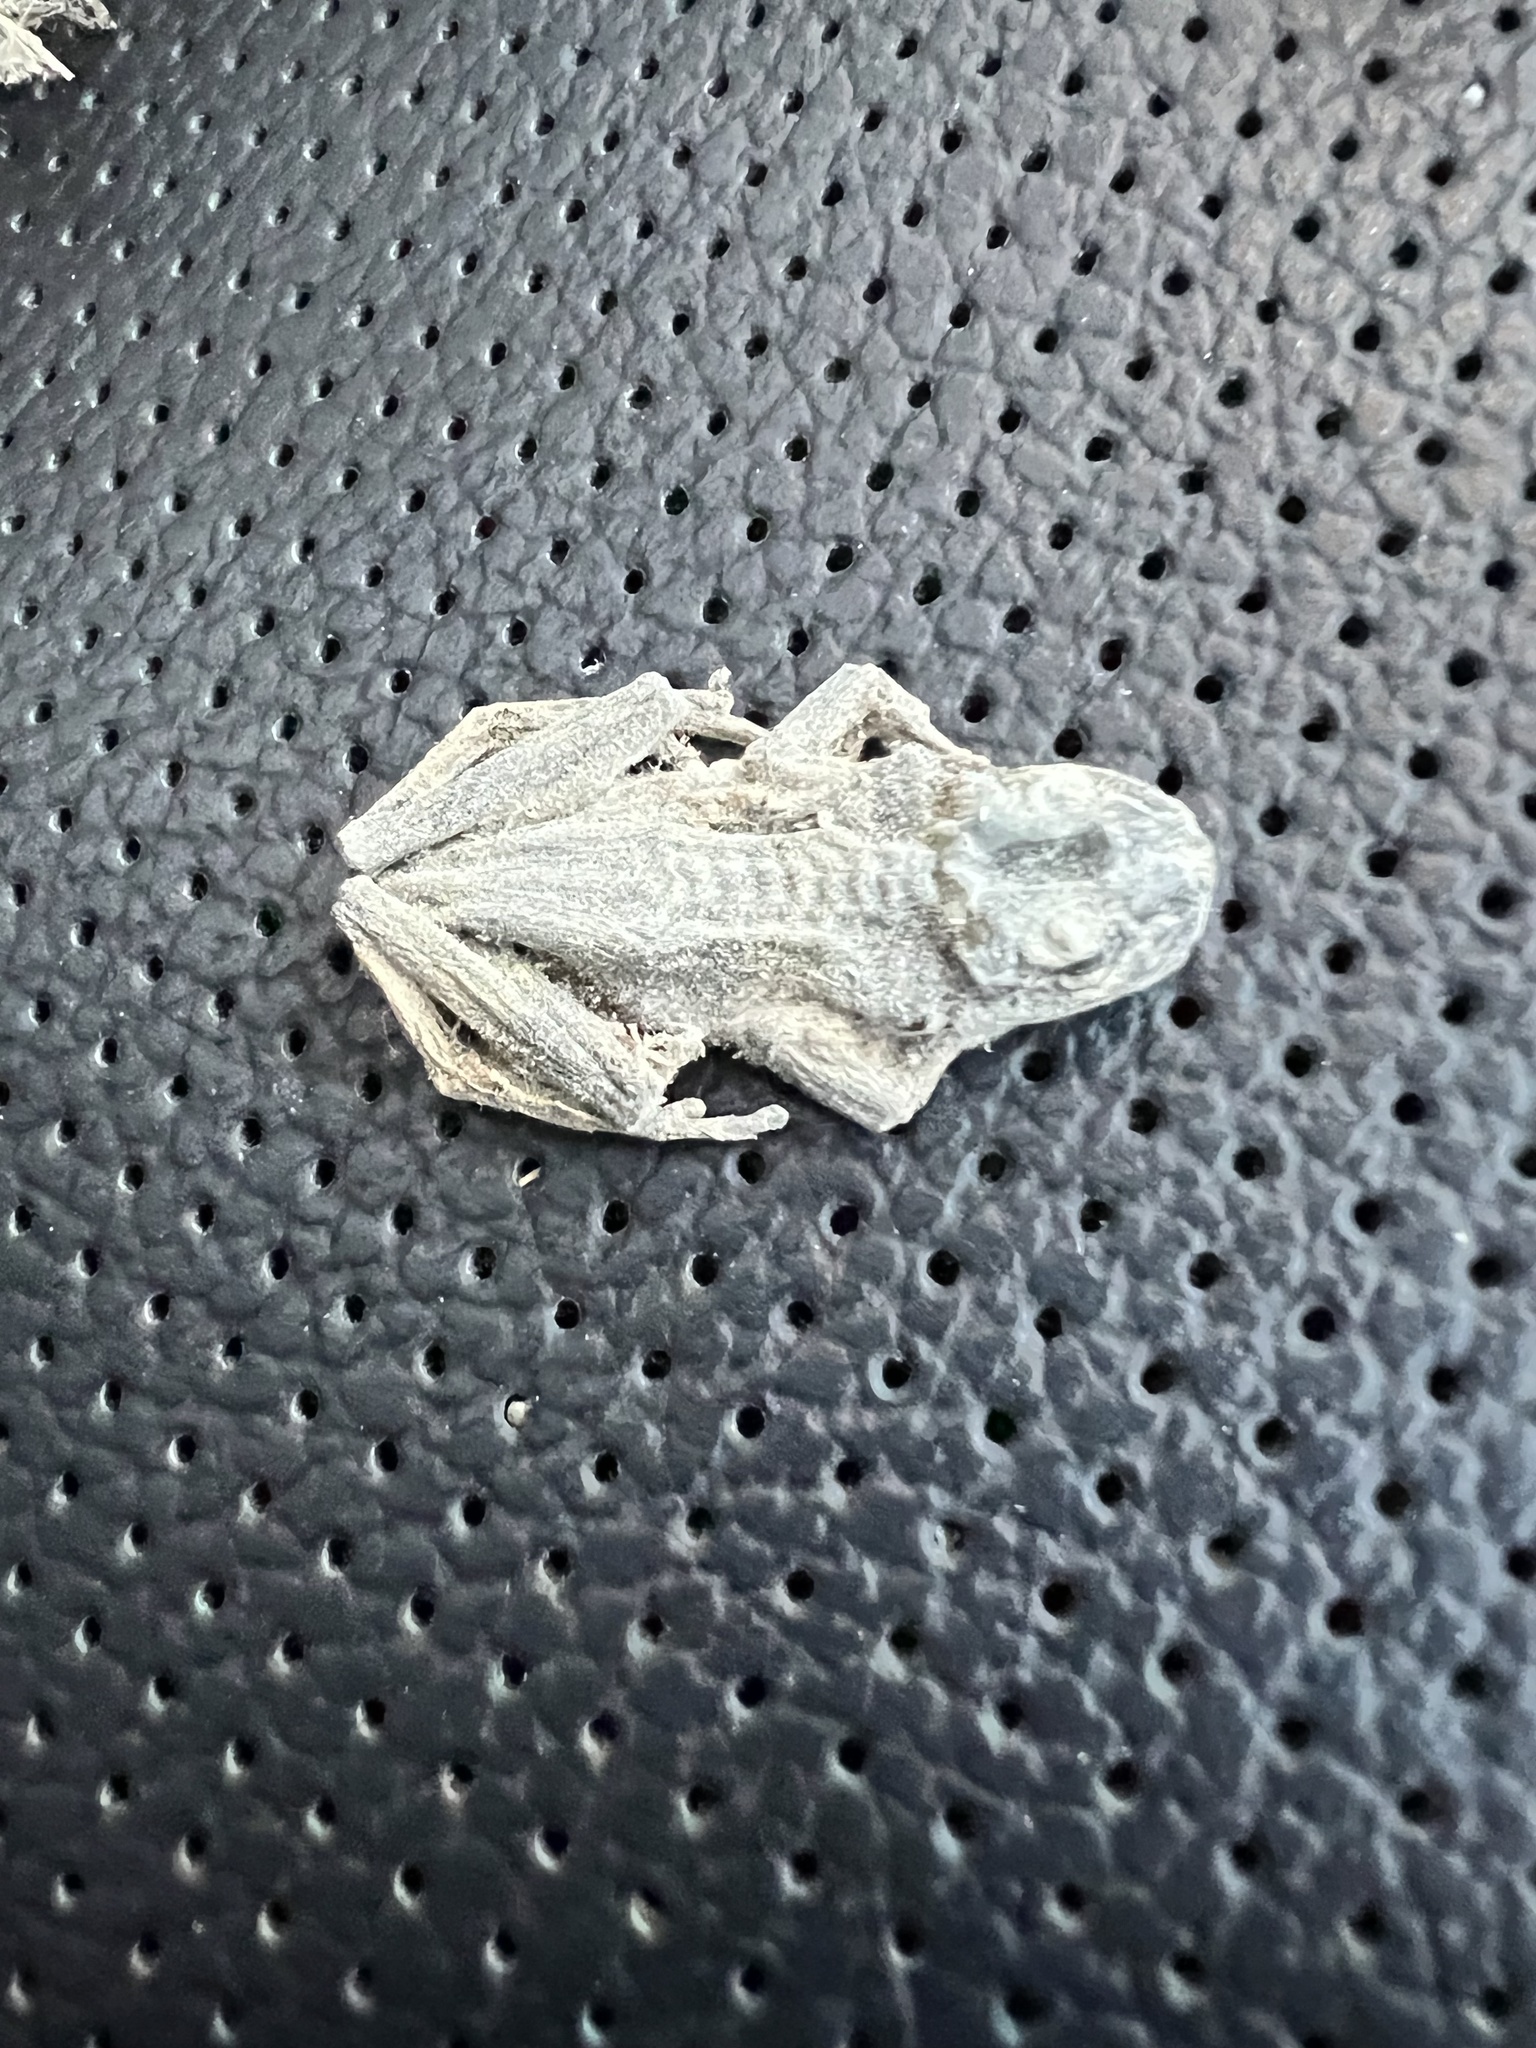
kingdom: Animalia
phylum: Chordata
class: Amphibia
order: Anura
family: Hylidae
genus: Pseudacris
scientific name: Pseudacris regilla
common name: Pacific chorus frog
